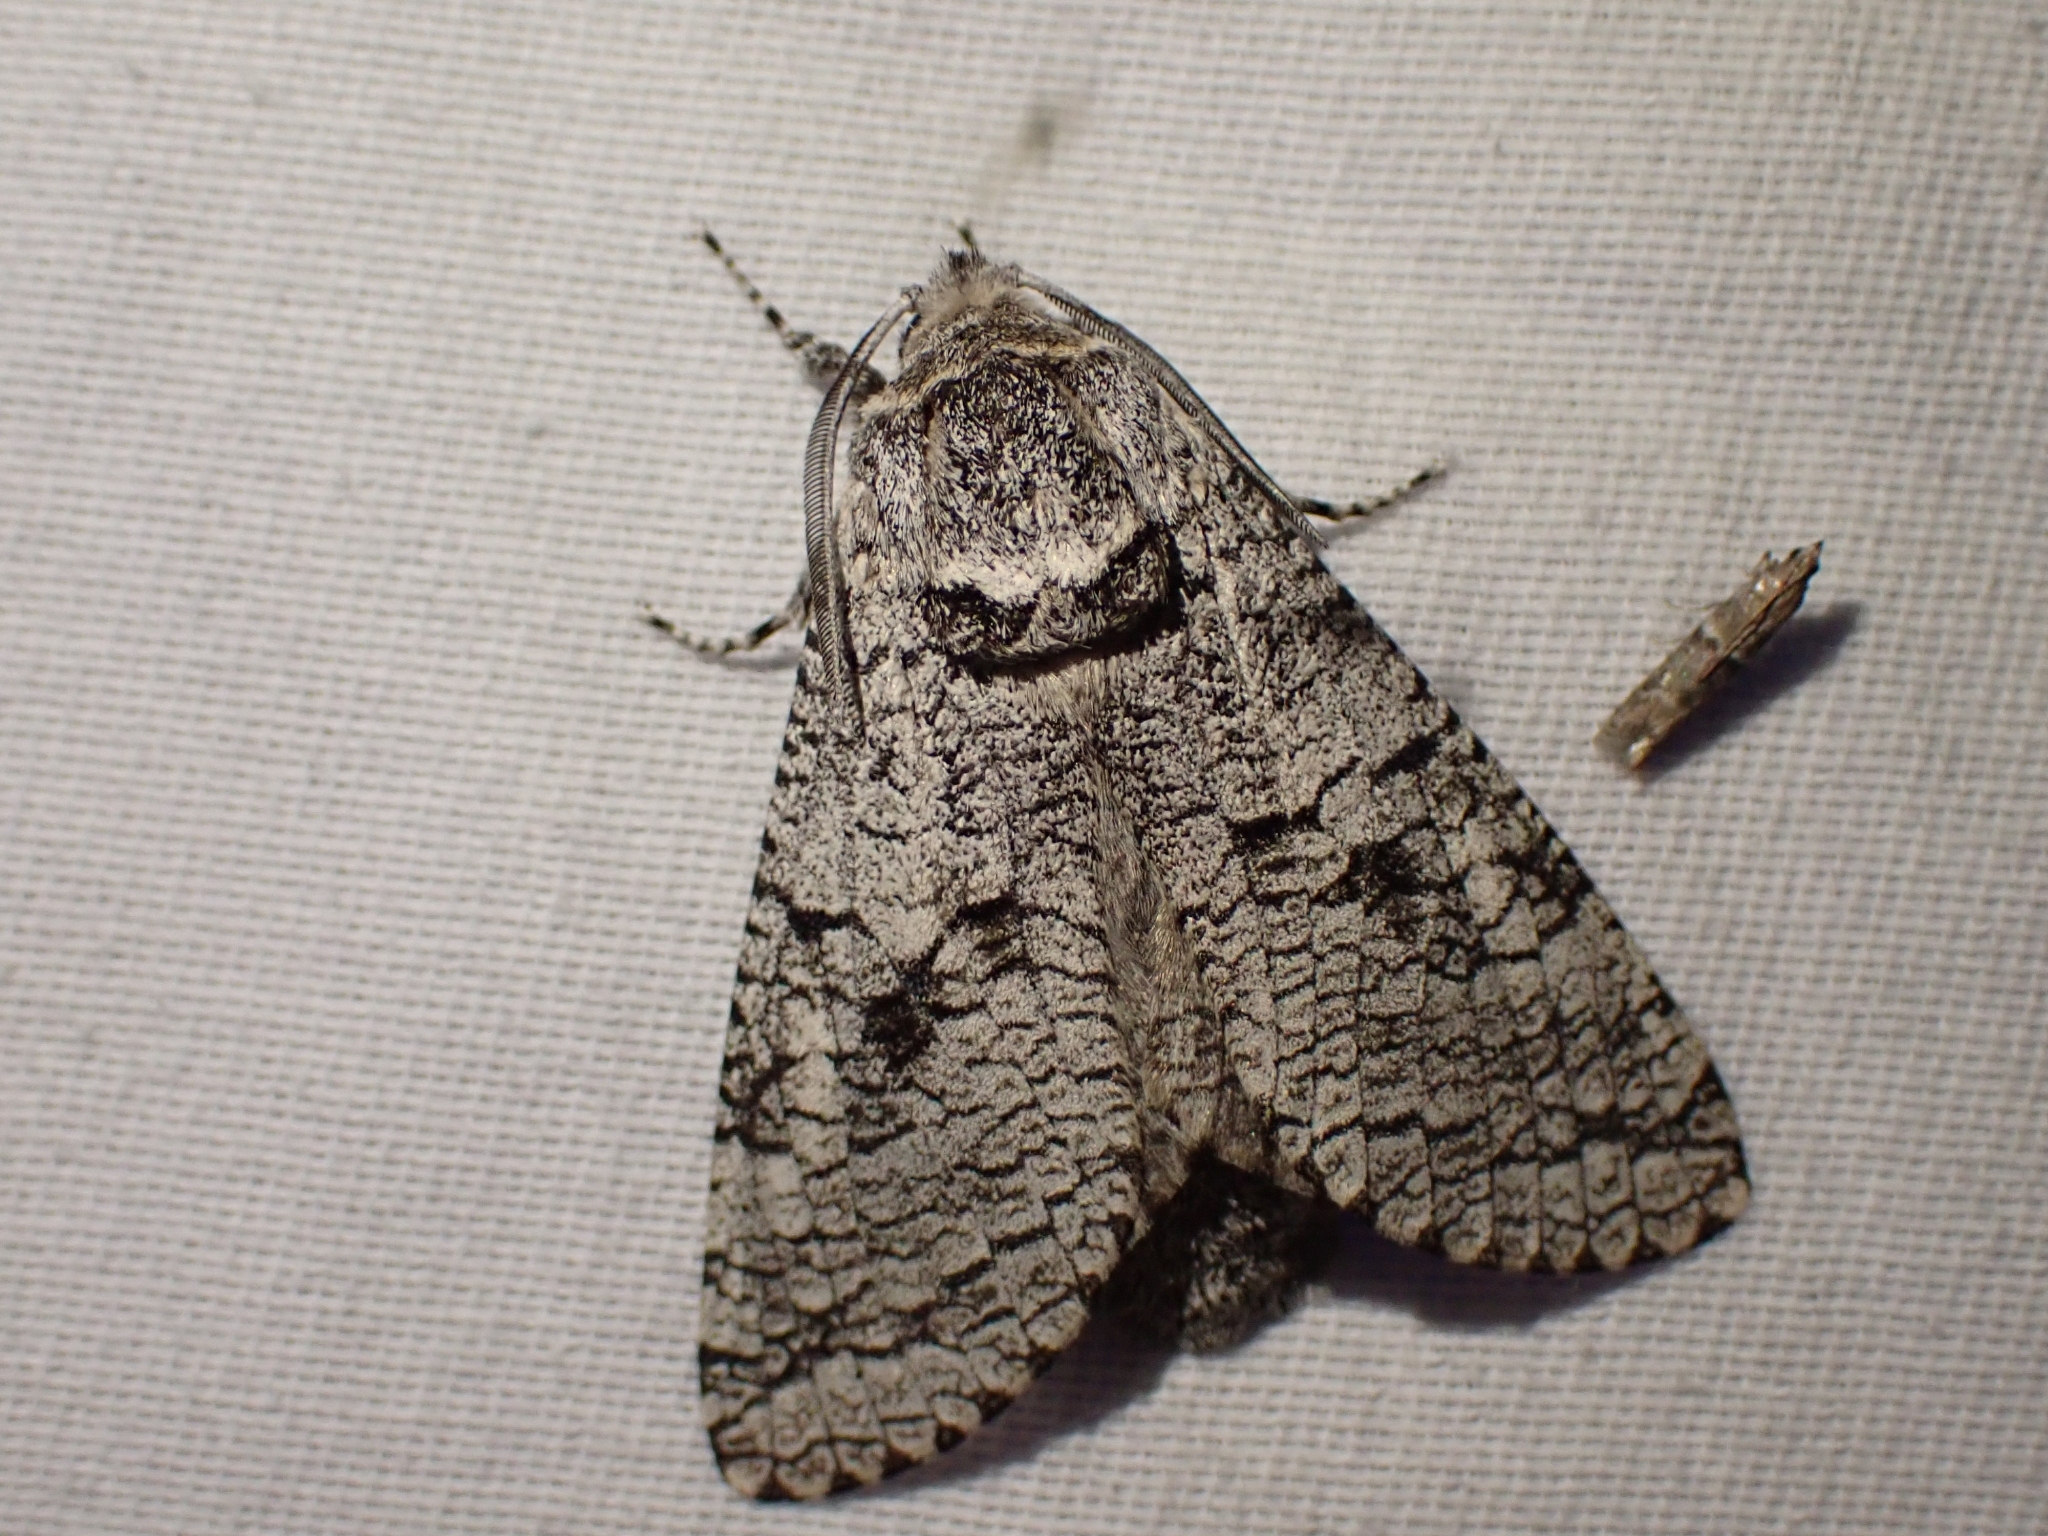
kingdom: Animalia
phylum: Arthropoda
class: Insecta
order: Lepidoptera
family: Cossidae
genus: Acossus
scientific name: Acossus populi
